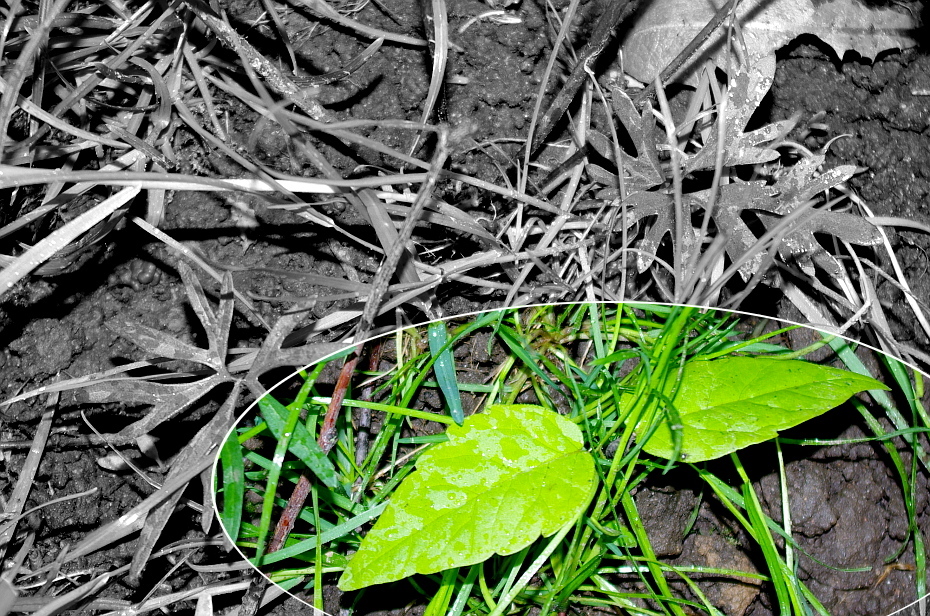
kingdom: Plantae
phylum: Tracheophyta
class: Magnoliopsida
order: Sapindales
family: Sapindaceae
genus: Acer
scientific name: Acer negundo
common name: Ashleaf maple
